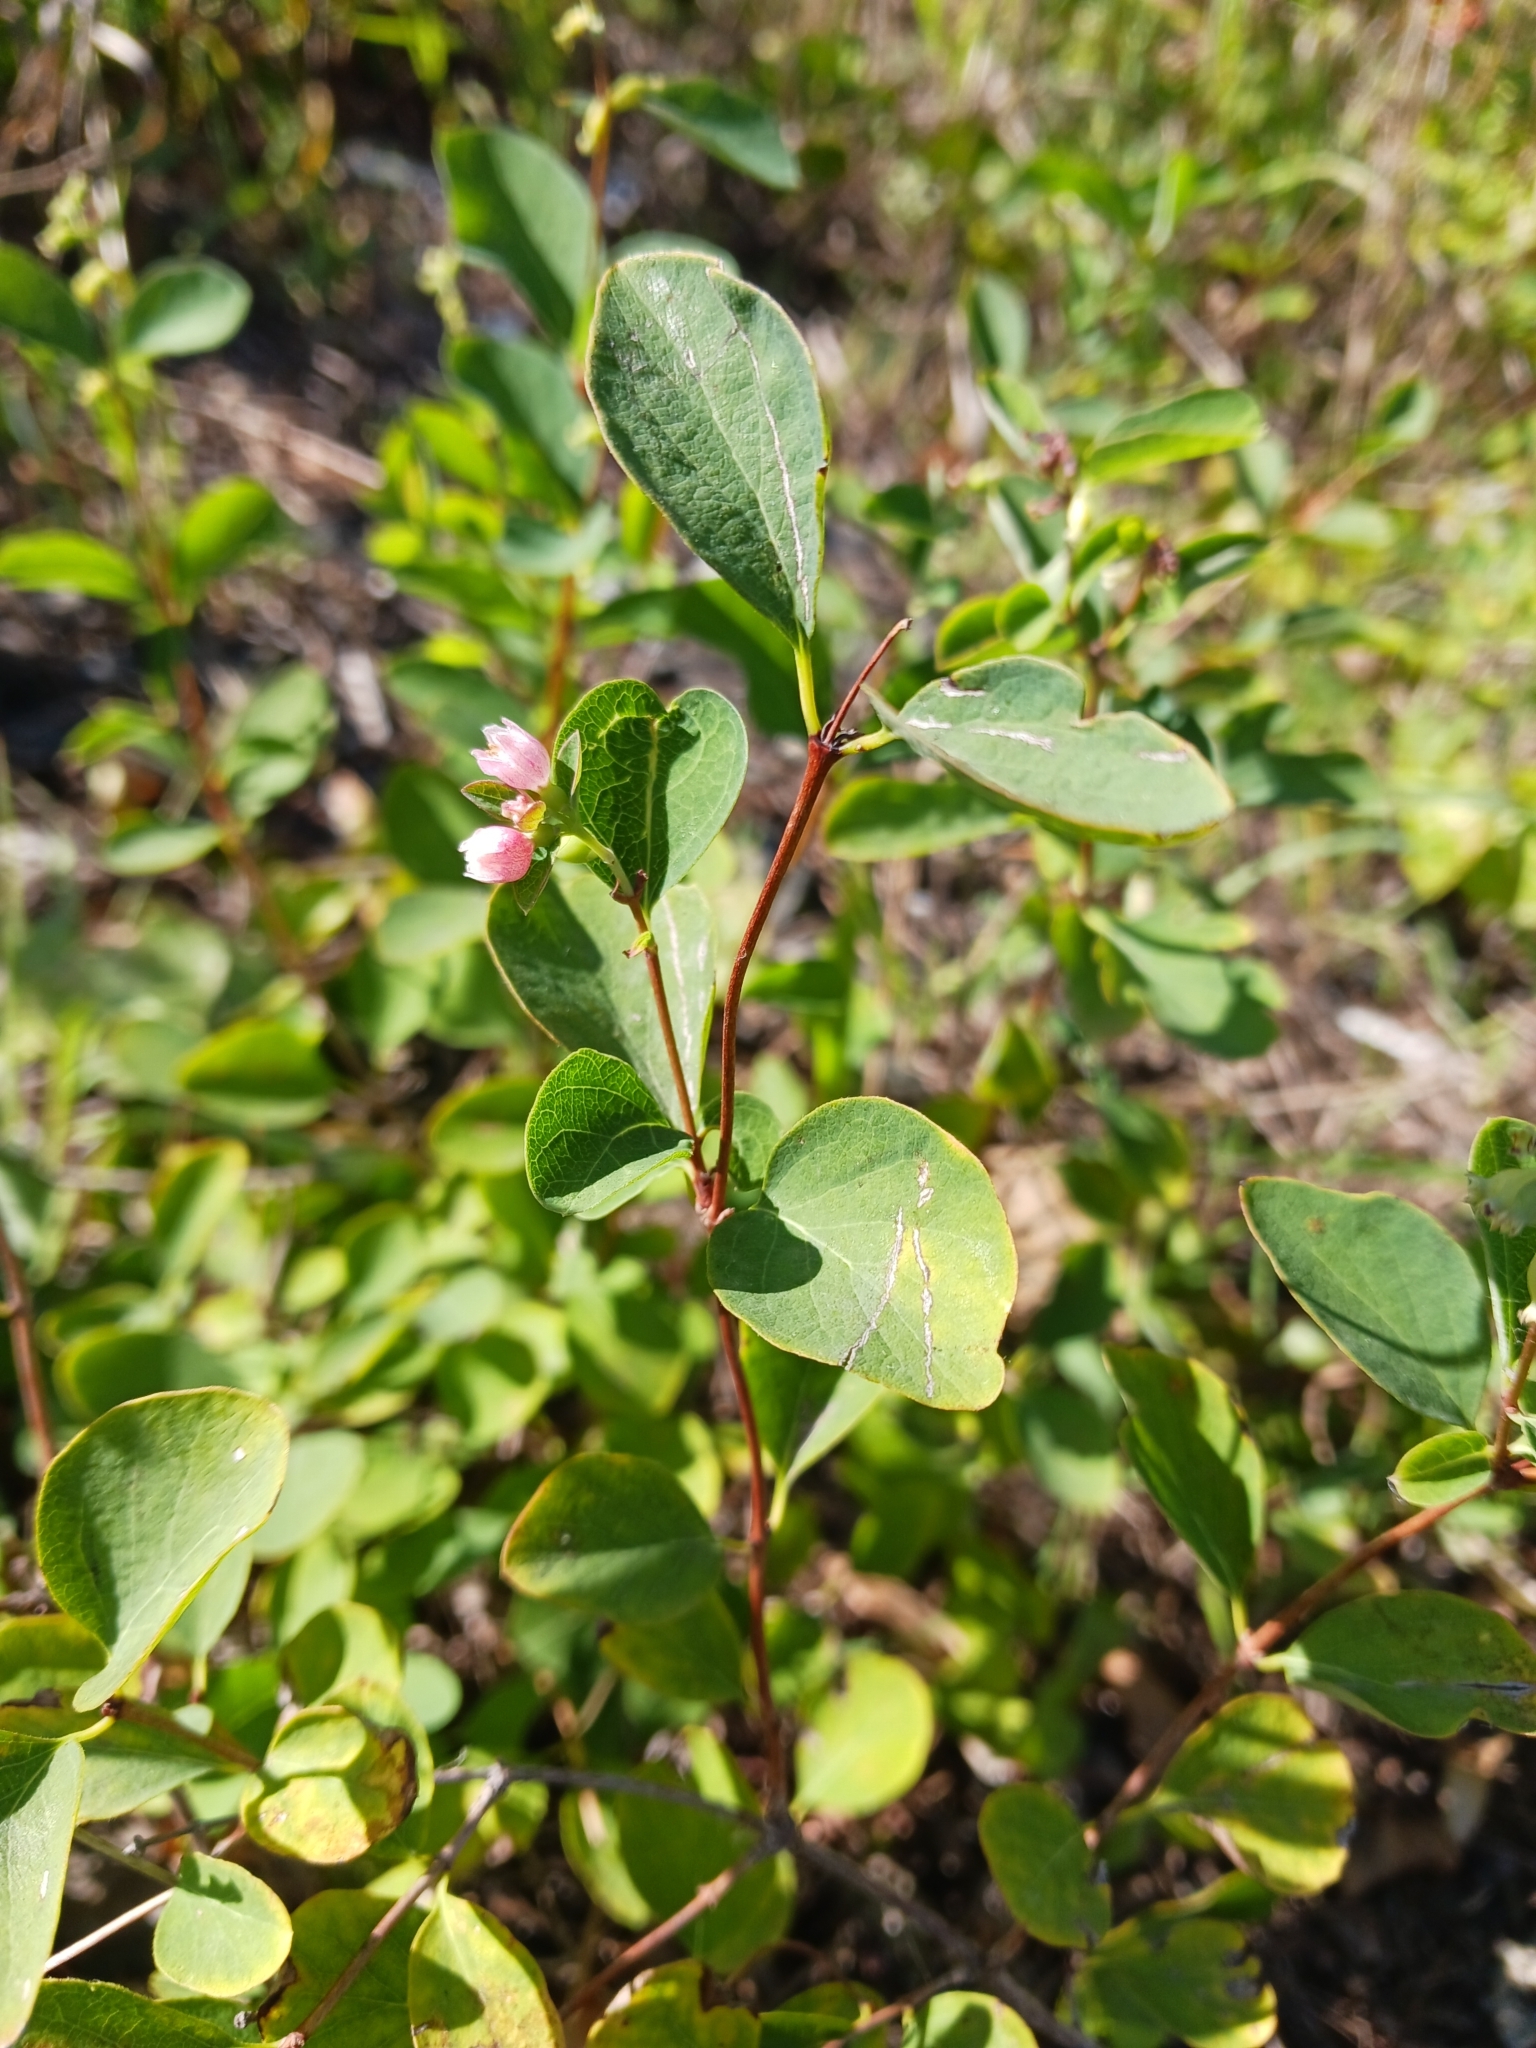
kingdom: Plantae
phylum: Tracheophyta
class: Magnoliopsida
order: Dipsacales
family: Caprifoliaceae
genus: Symphoricarpos
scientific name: Symphoricarpos albus
